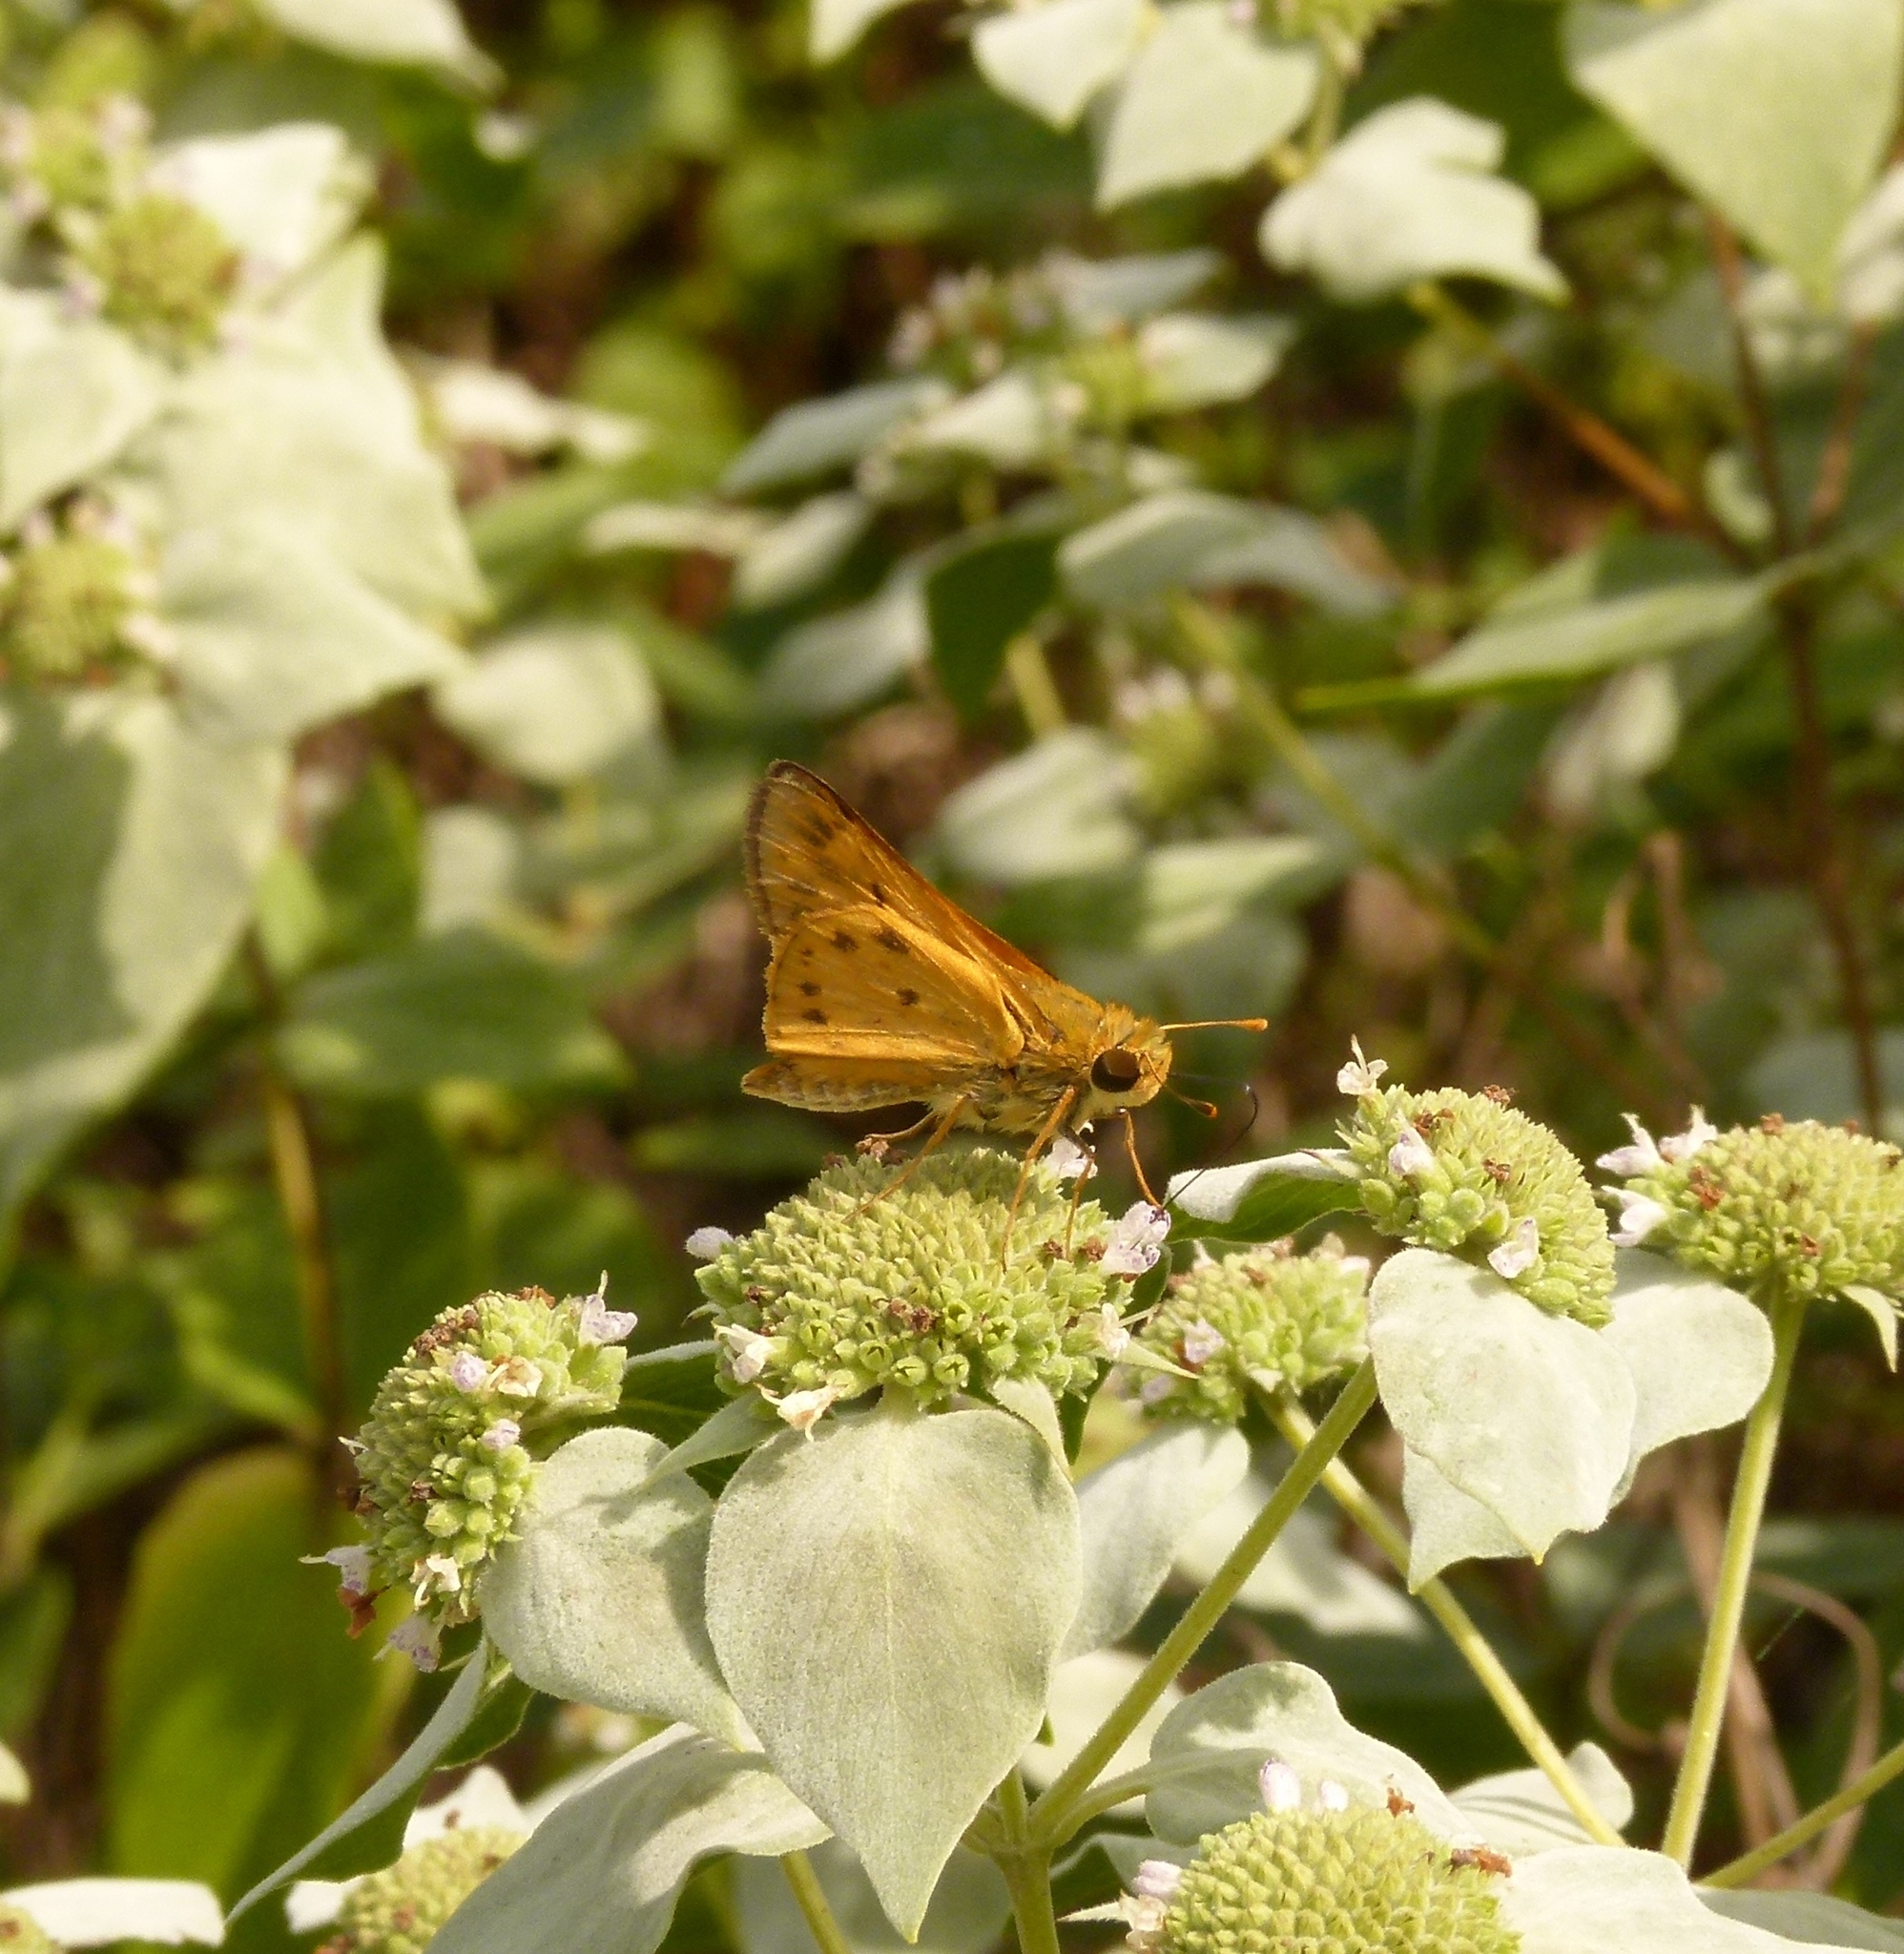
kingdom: Animalia
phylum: Arthropoda
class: Insecta
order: Lepidoptera
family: Hesperiidae
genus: Hylephila
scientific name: Hylephila phyleus
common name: Fiery skipper
